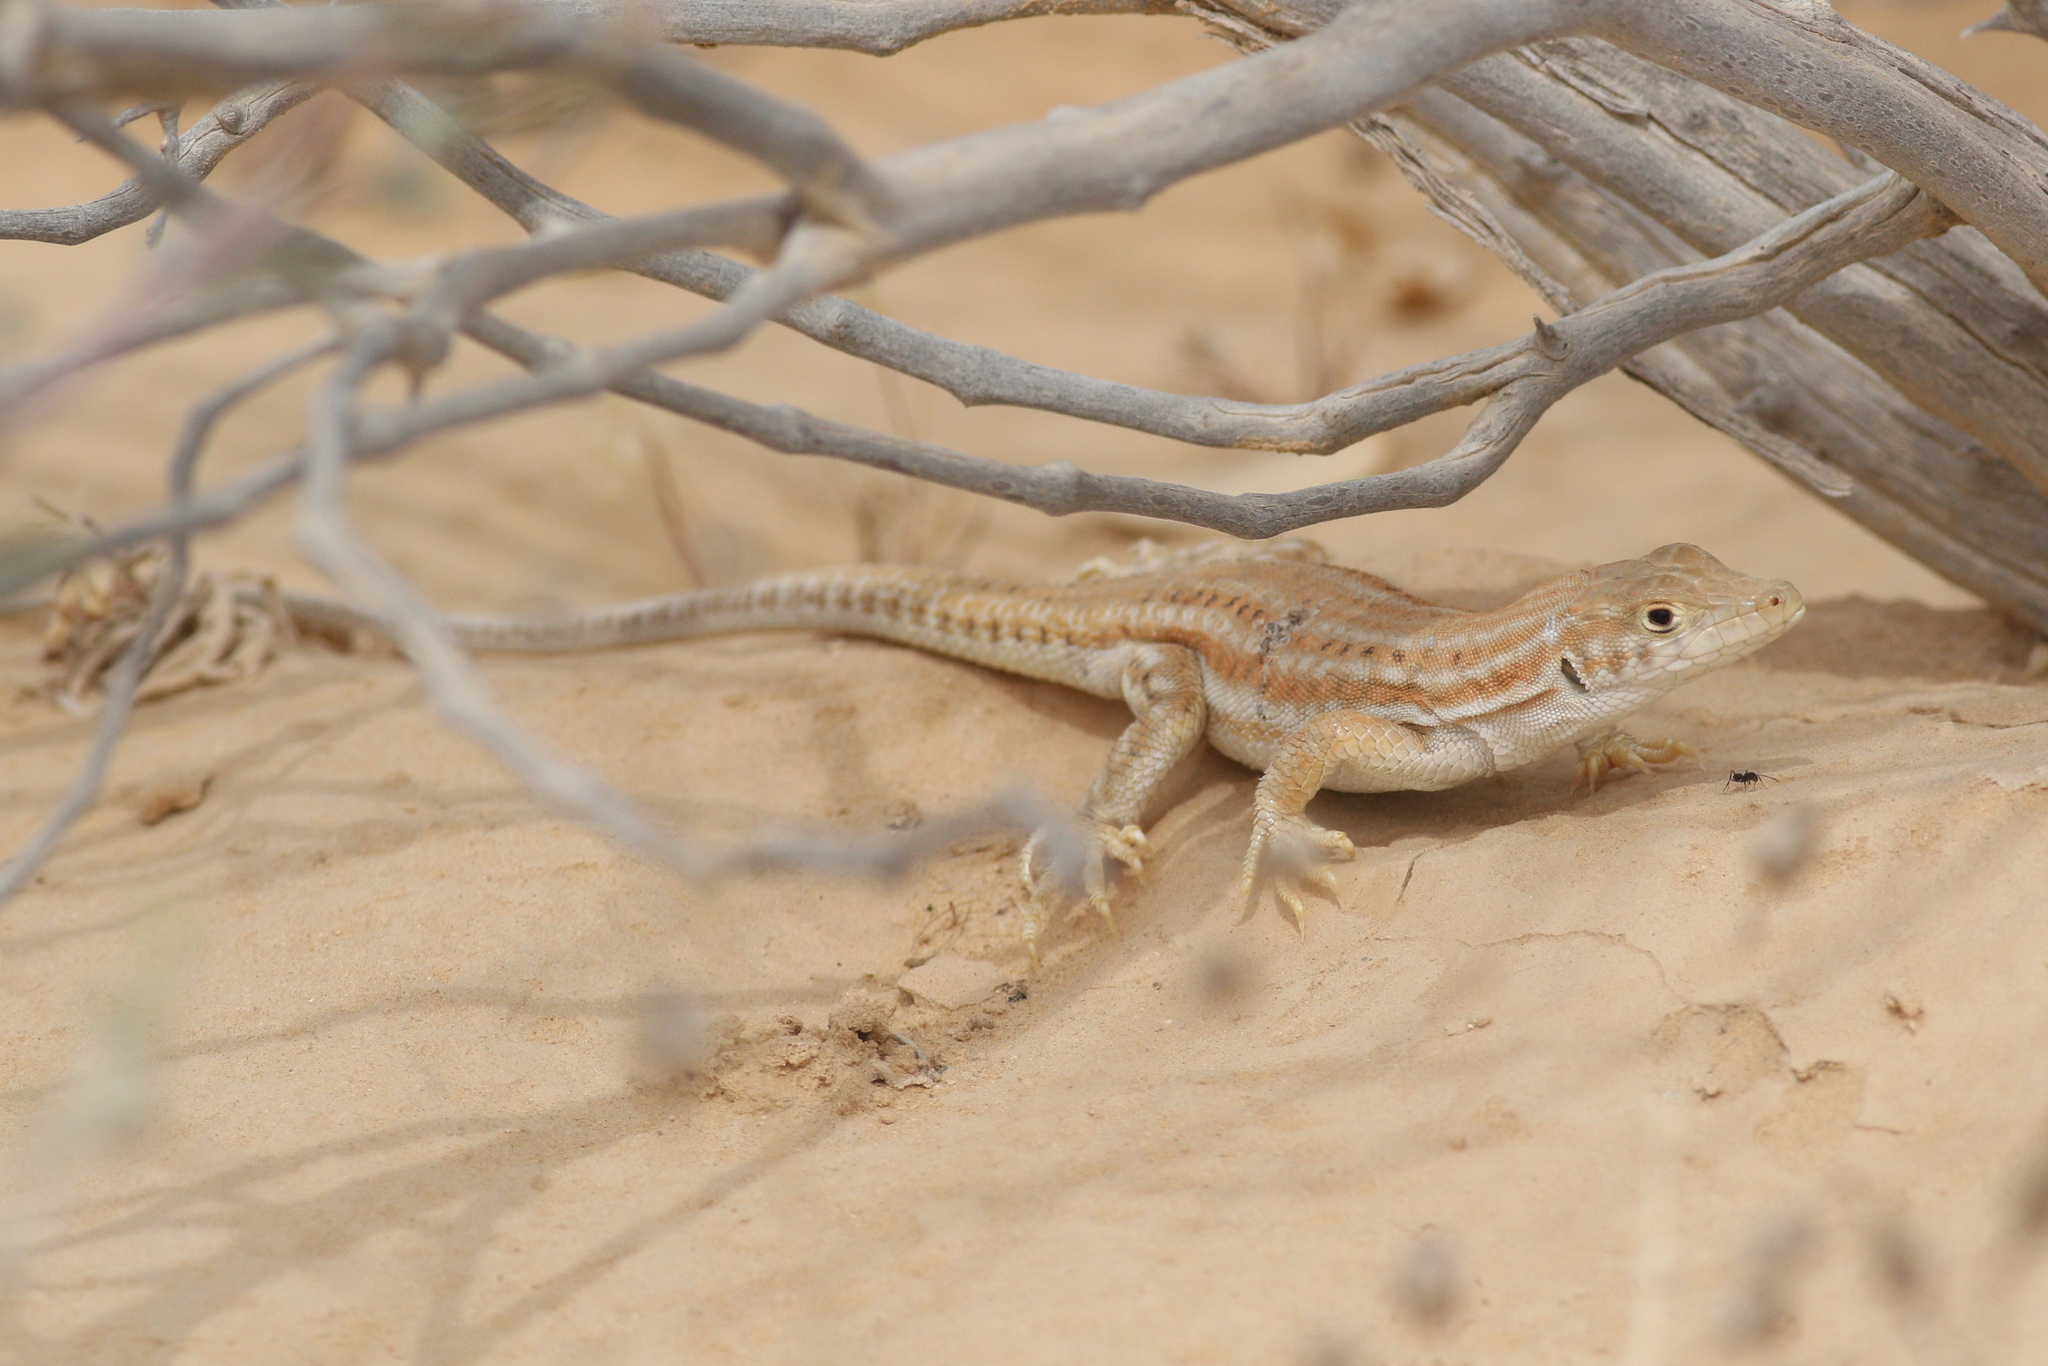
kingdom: Animalia
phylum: Chordata
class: Squamata
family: Lacertidae
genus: Acanthodactylus
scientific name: Acanthodactylus boskianus
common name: Bosc’s fringe-toed lizard
